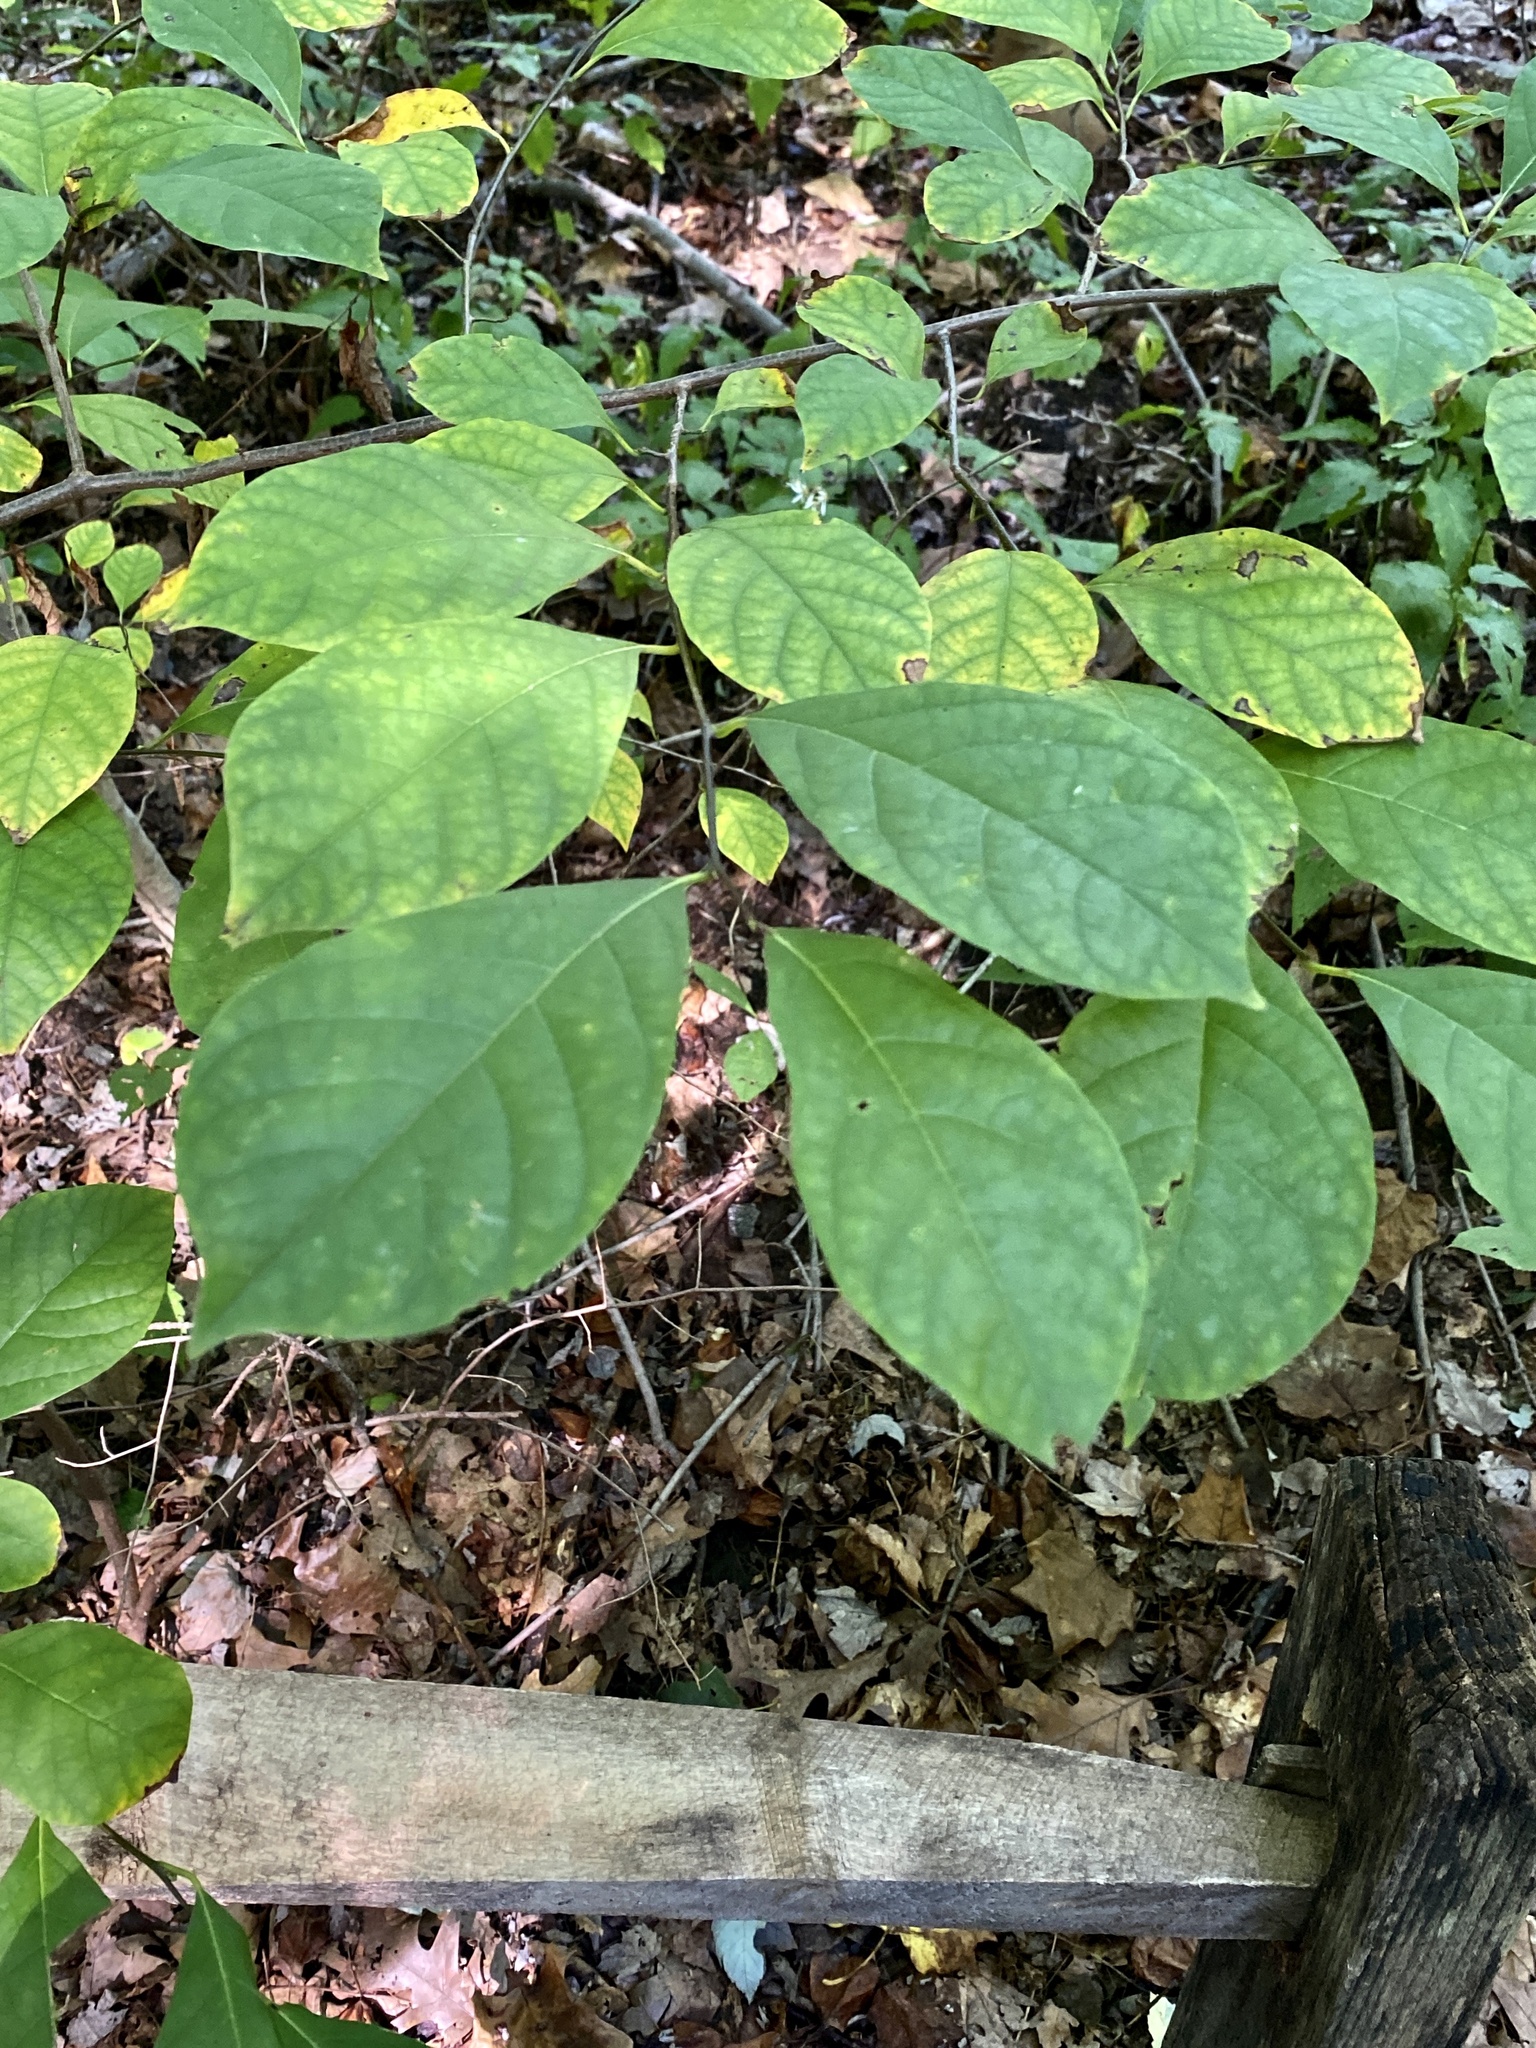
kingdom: Plantae
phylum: Tracheophyta
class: Magnoliopsida
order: Laurales
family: Lauraceae
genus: Lindera
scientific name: Lindera benzoin
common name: Spicebush
